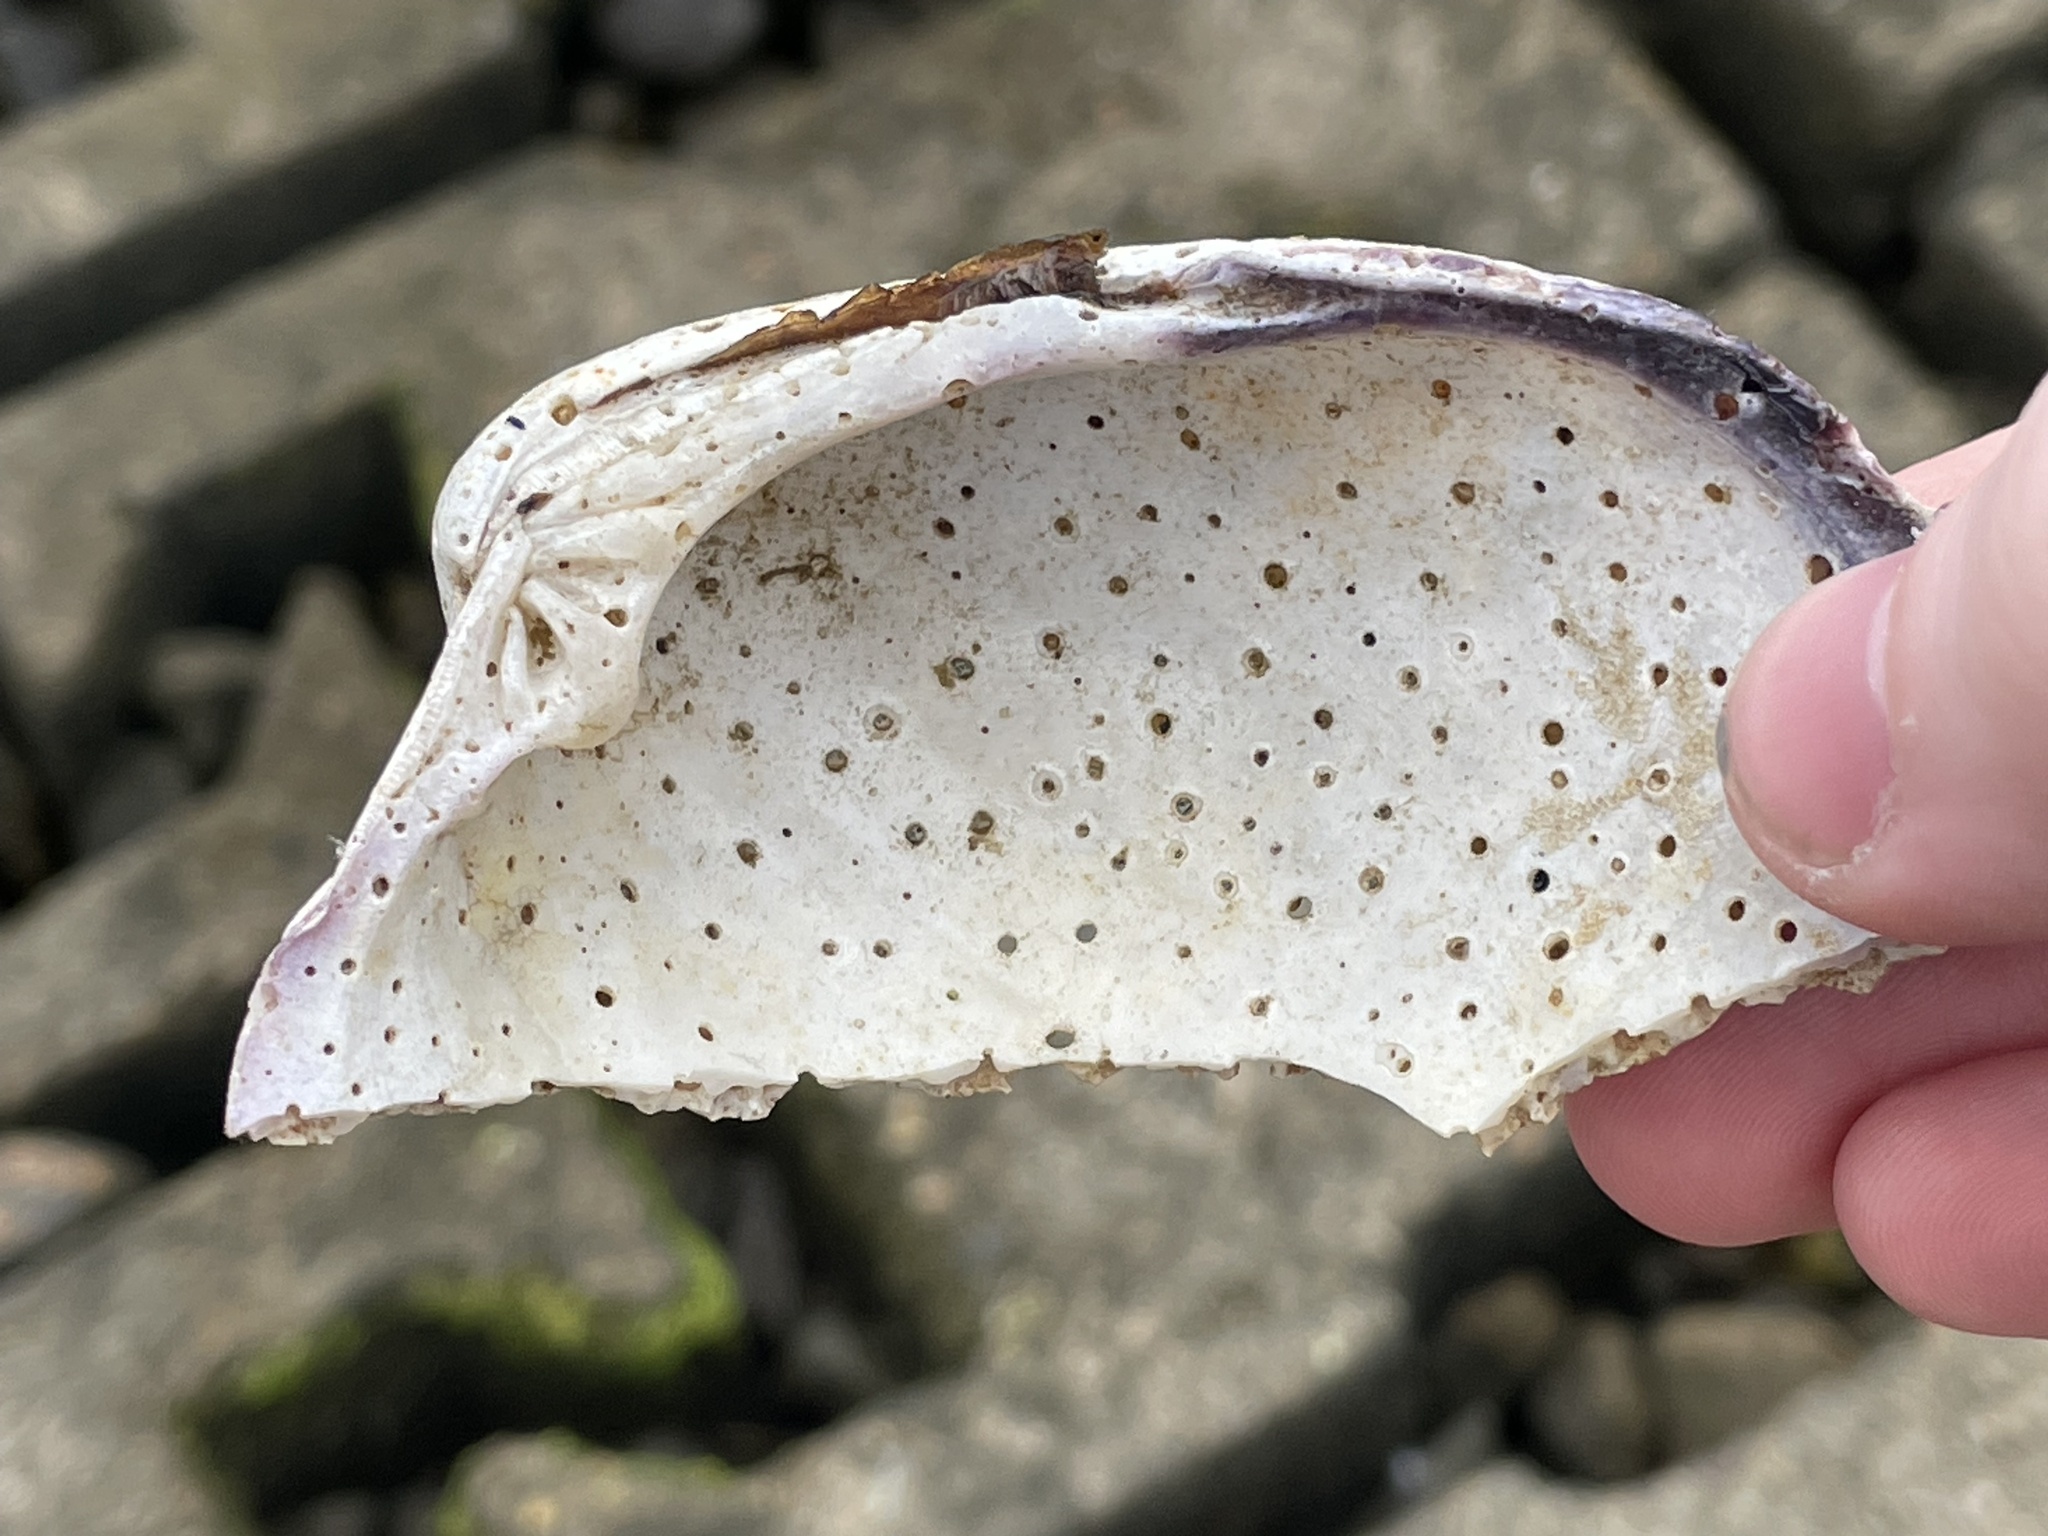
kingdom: Animalia
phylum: Mollusca
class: Bivalvia
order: Venerida
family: Veneridae
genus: Mercenaria
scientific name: Mercenaria mercenaria
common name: American hard-shelled clam
